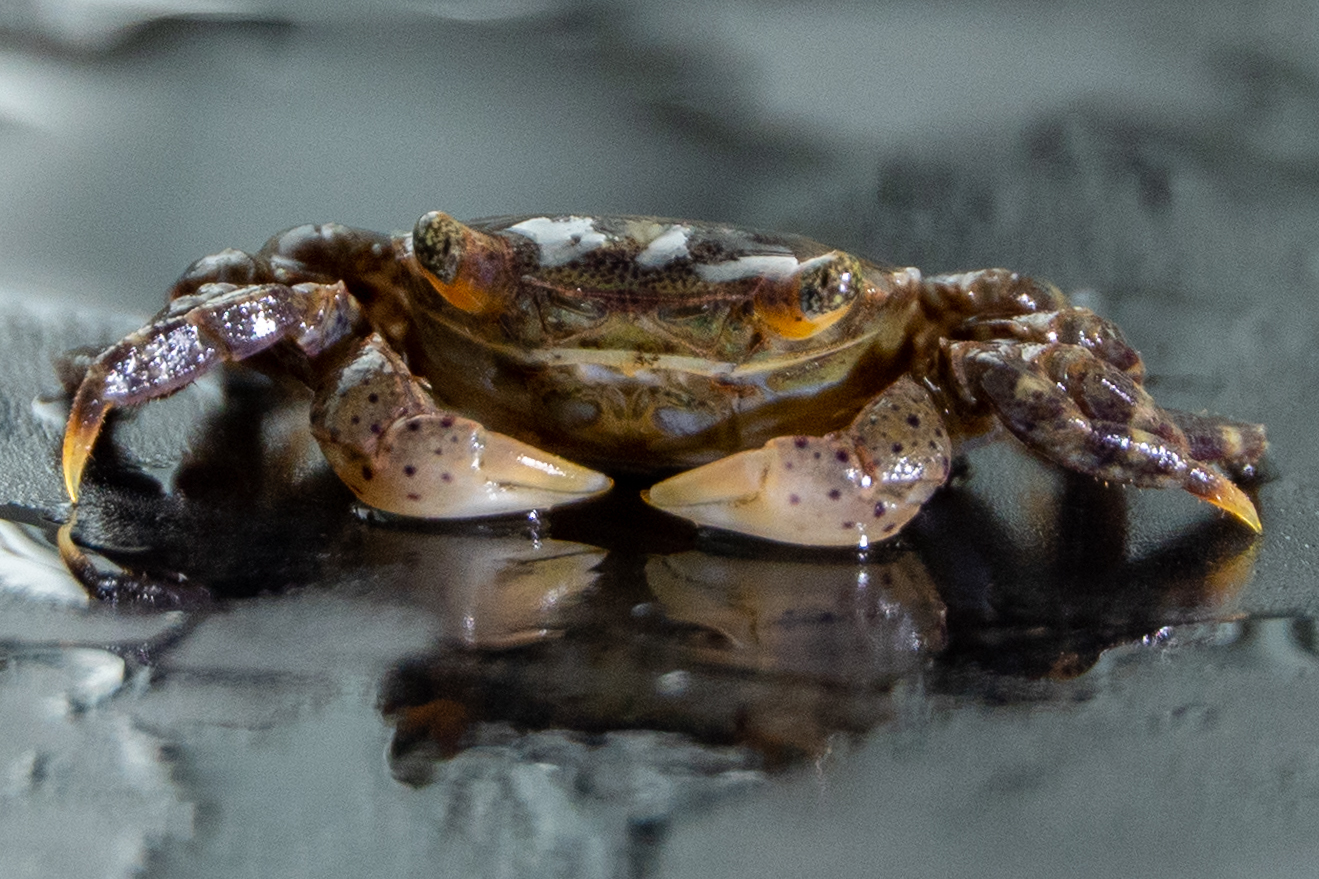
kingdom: Animalia
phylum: Arthropoda
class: Malacostraca
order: Decapoda
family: Varunidae
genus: Hemigrapsus
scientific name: Hemigrapsus sanguineus
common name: Asian shore crab
